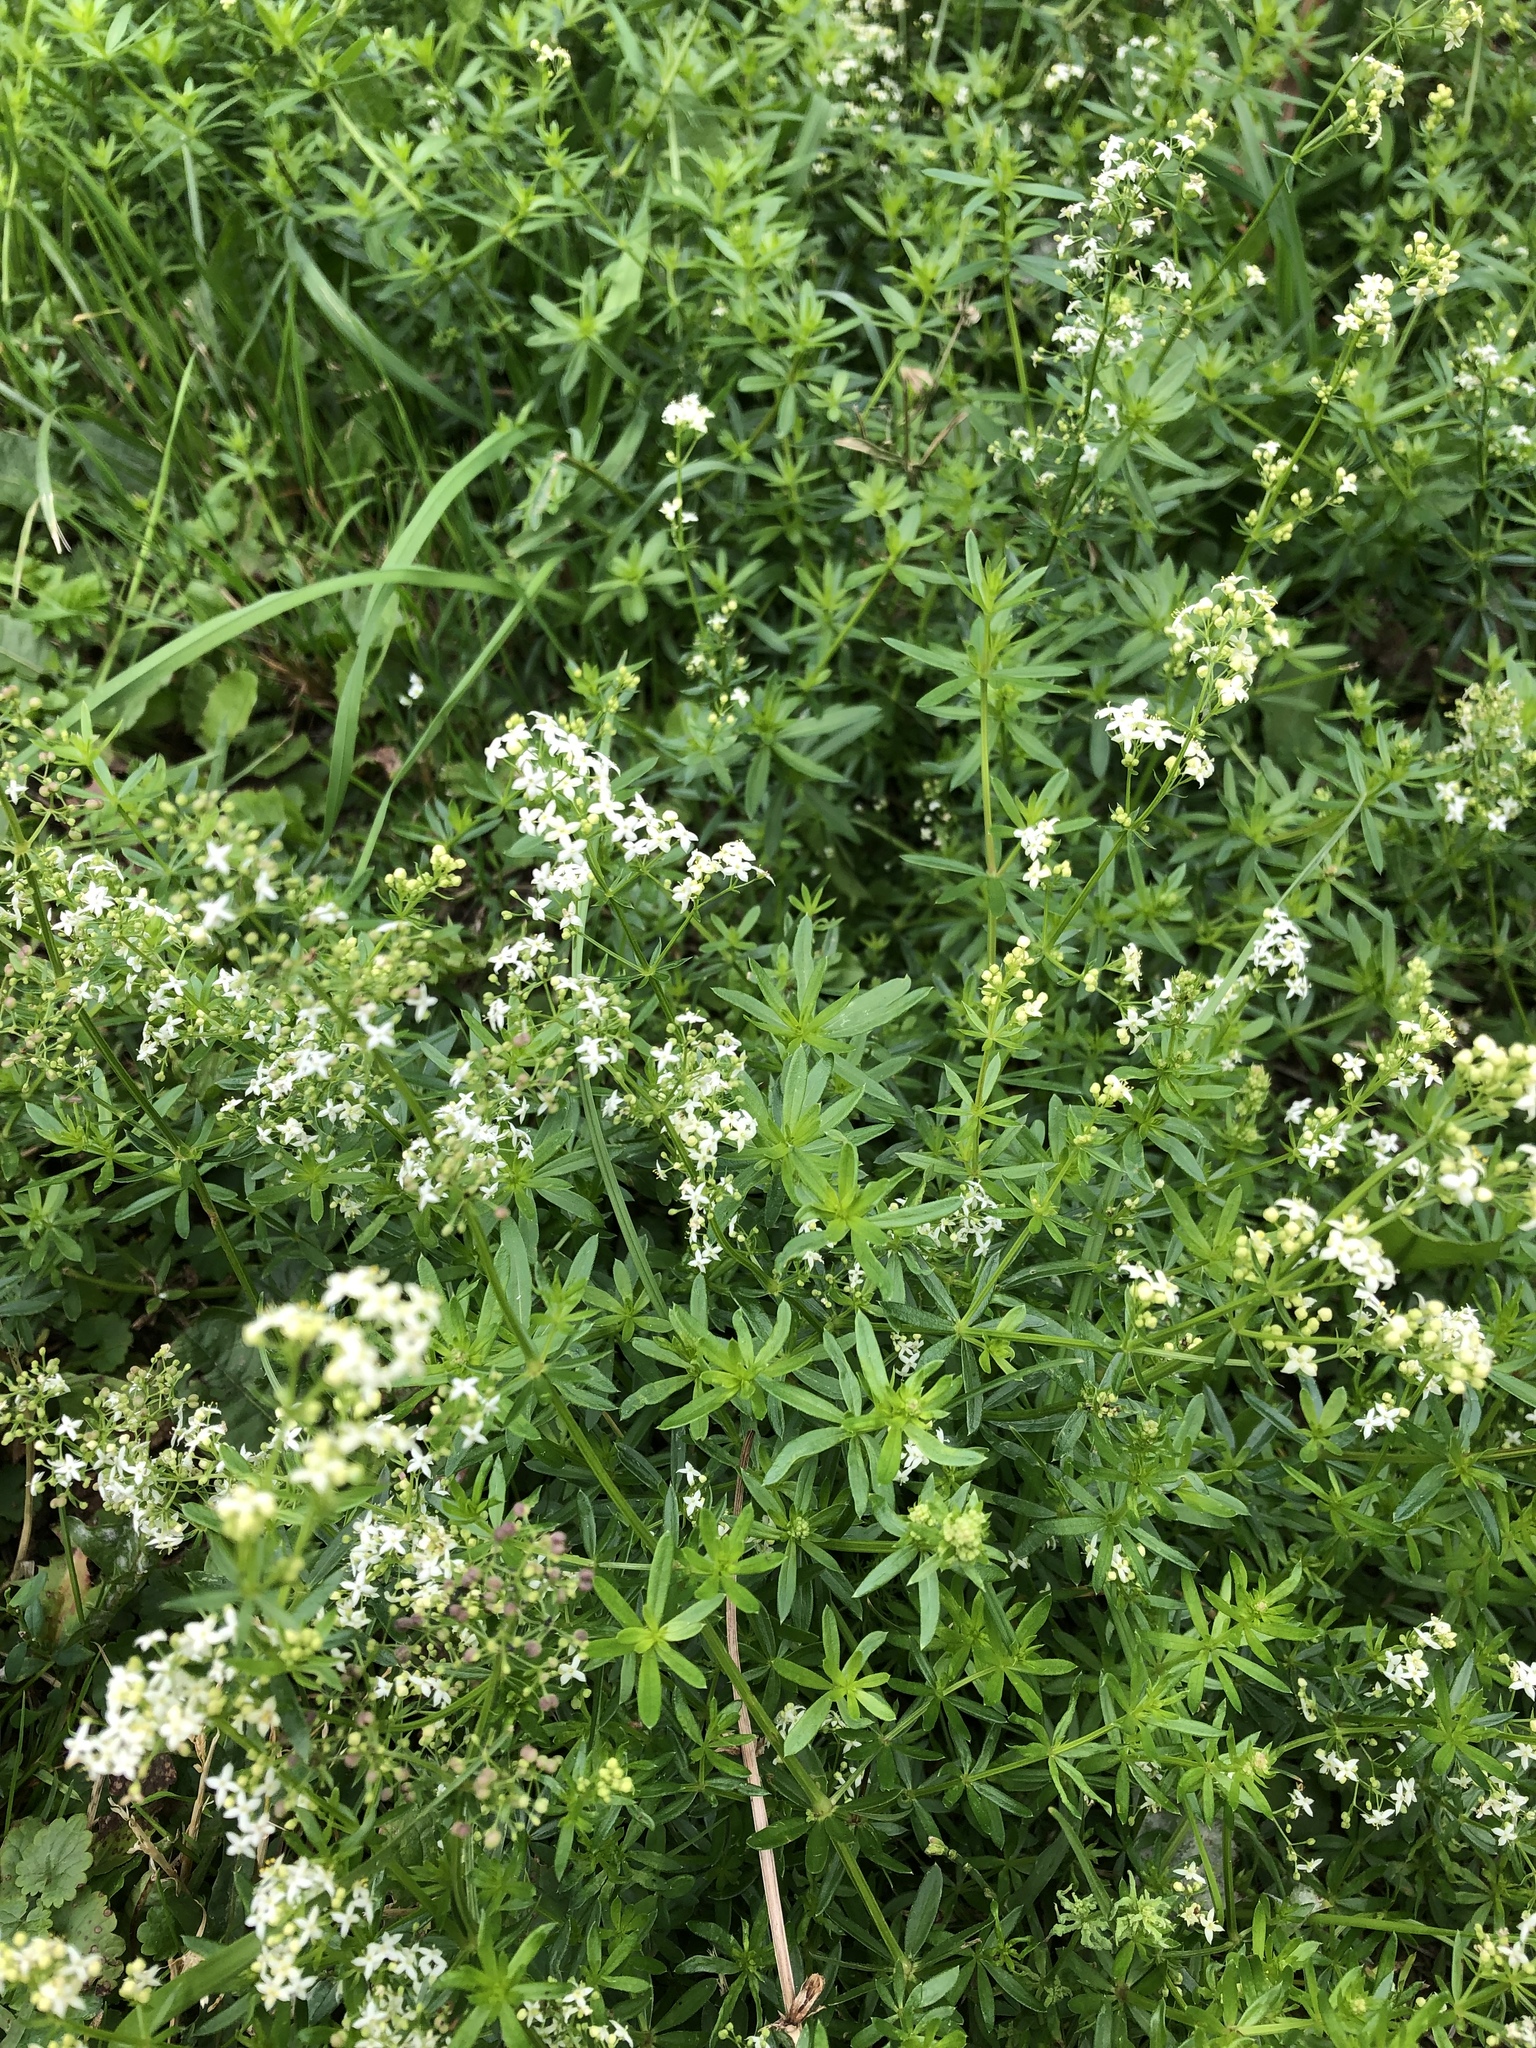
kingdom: Plantae
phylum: Tracheophyta
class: Magnoliopsida
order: Gentianales
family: Rubiaceae
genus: Galium
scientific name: Galium mollugo
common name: Hedge bedstraw
